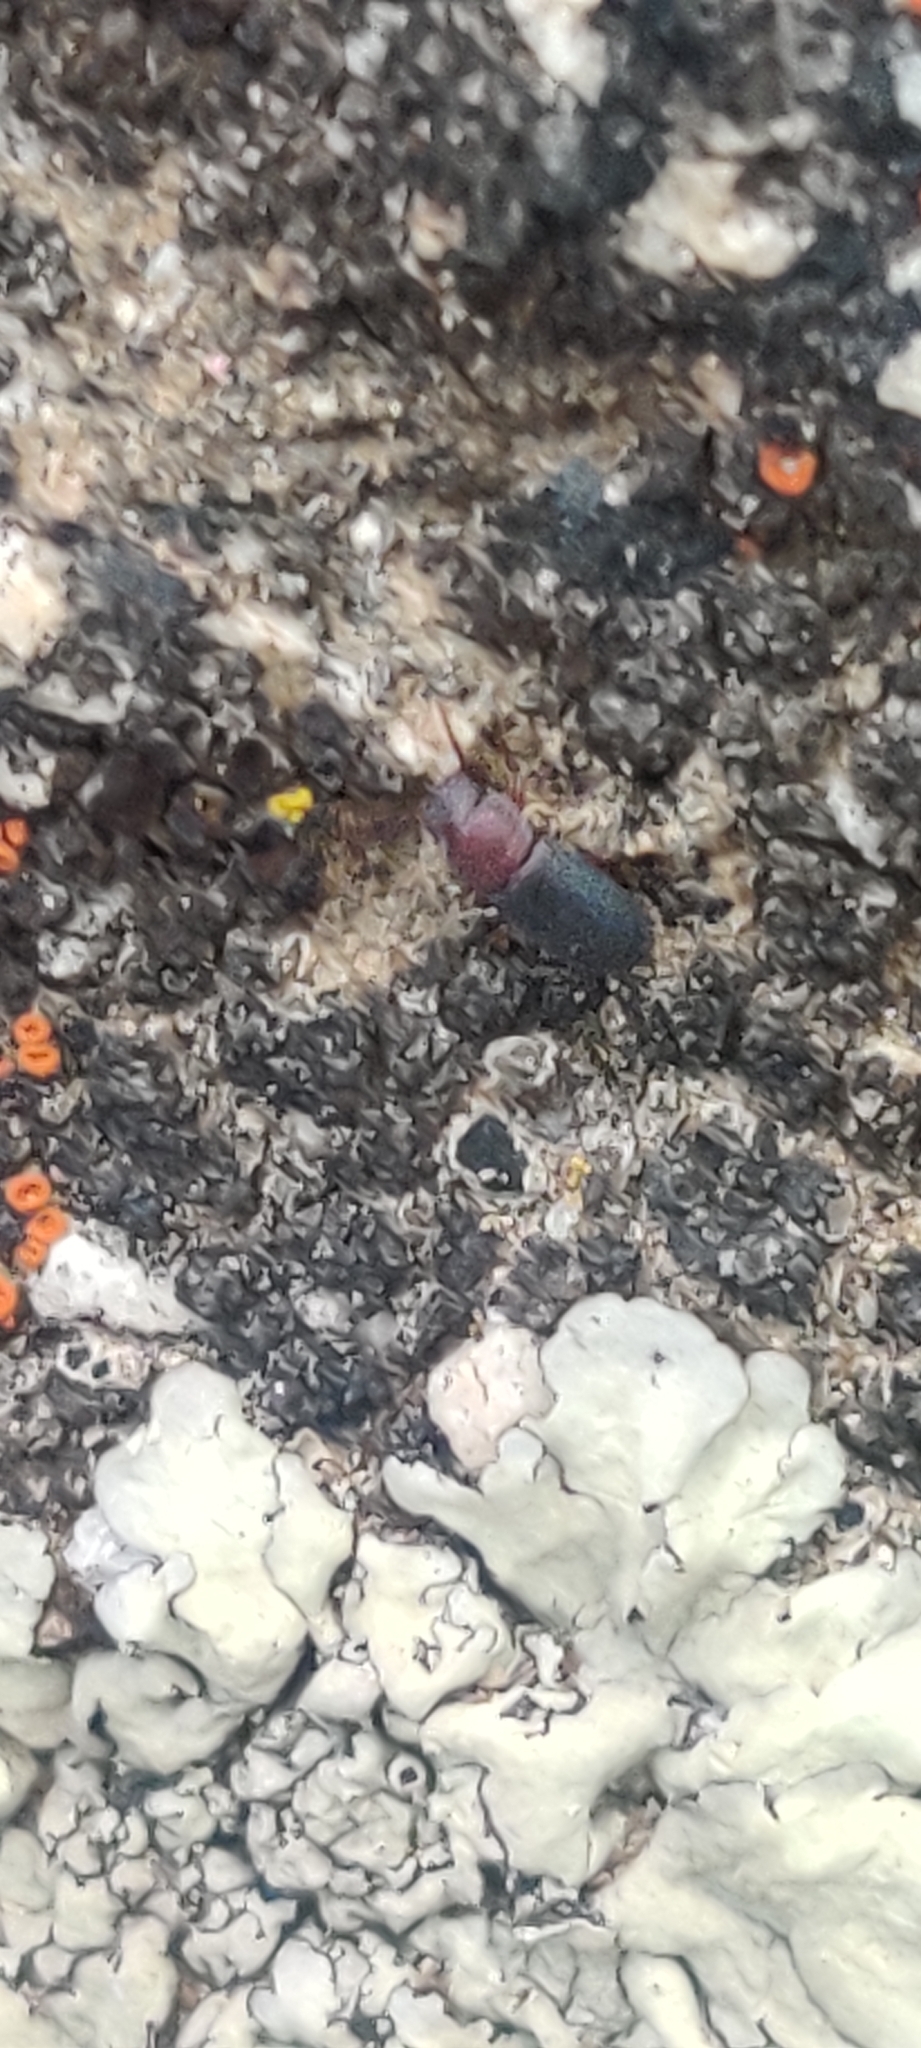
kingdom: Animalia
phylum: Arthropoda
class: Insecta
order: Coleoptera
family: Tenebrionidae
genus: Anepsius
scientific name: Anepsius delicatulus
